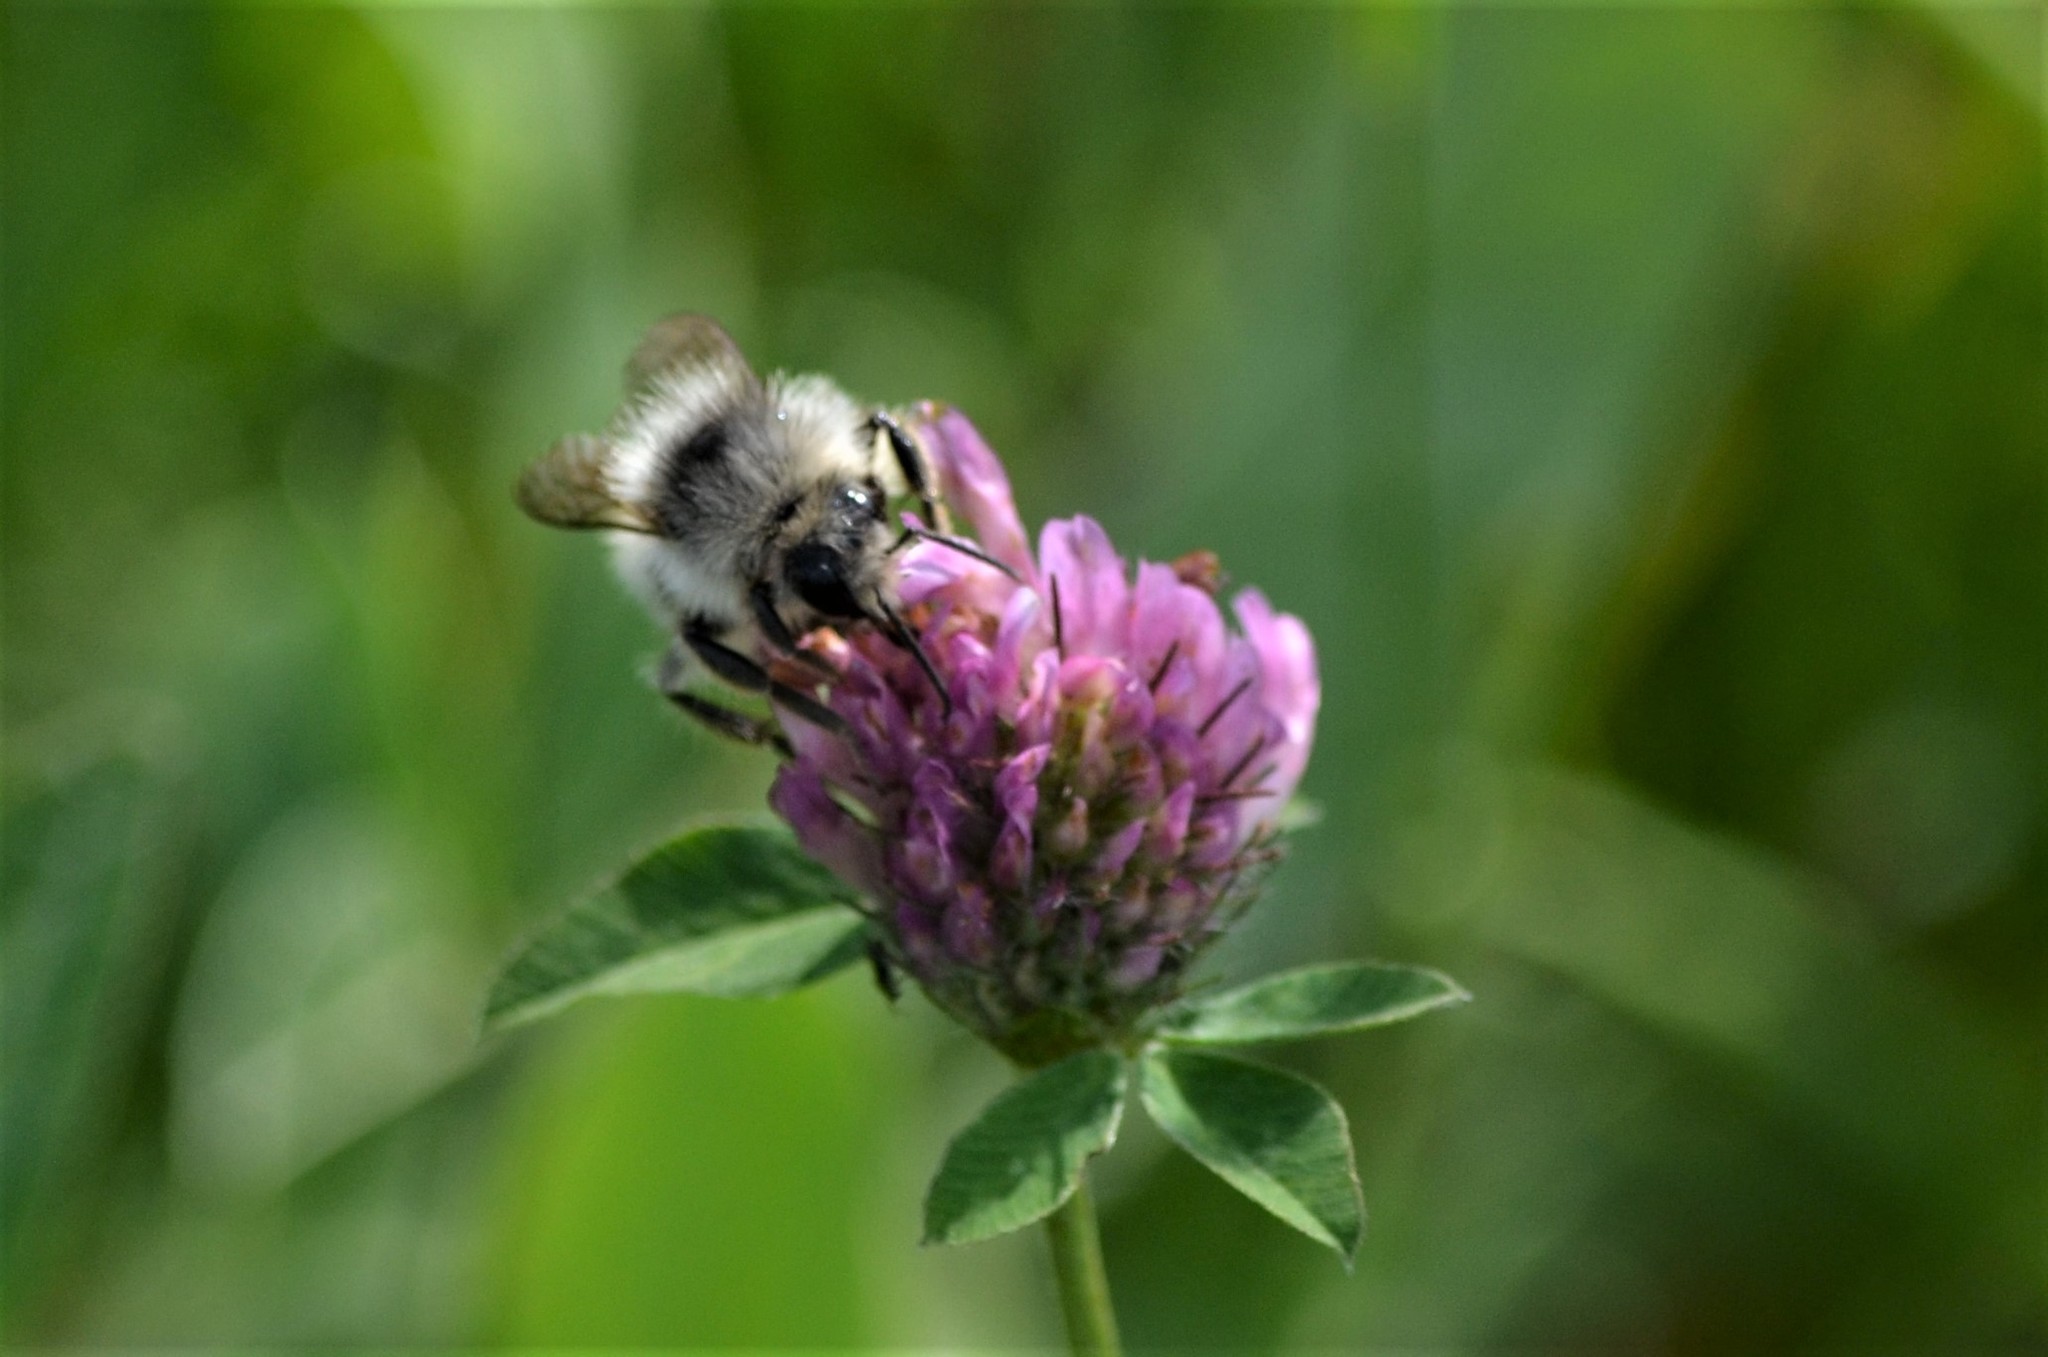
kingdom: Animalia
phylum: Arthropoda
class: Insecta
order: Hymenoptera
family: Apidae
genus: Bombus
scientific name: Bombus sylvarum
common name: Shrill carder bee
